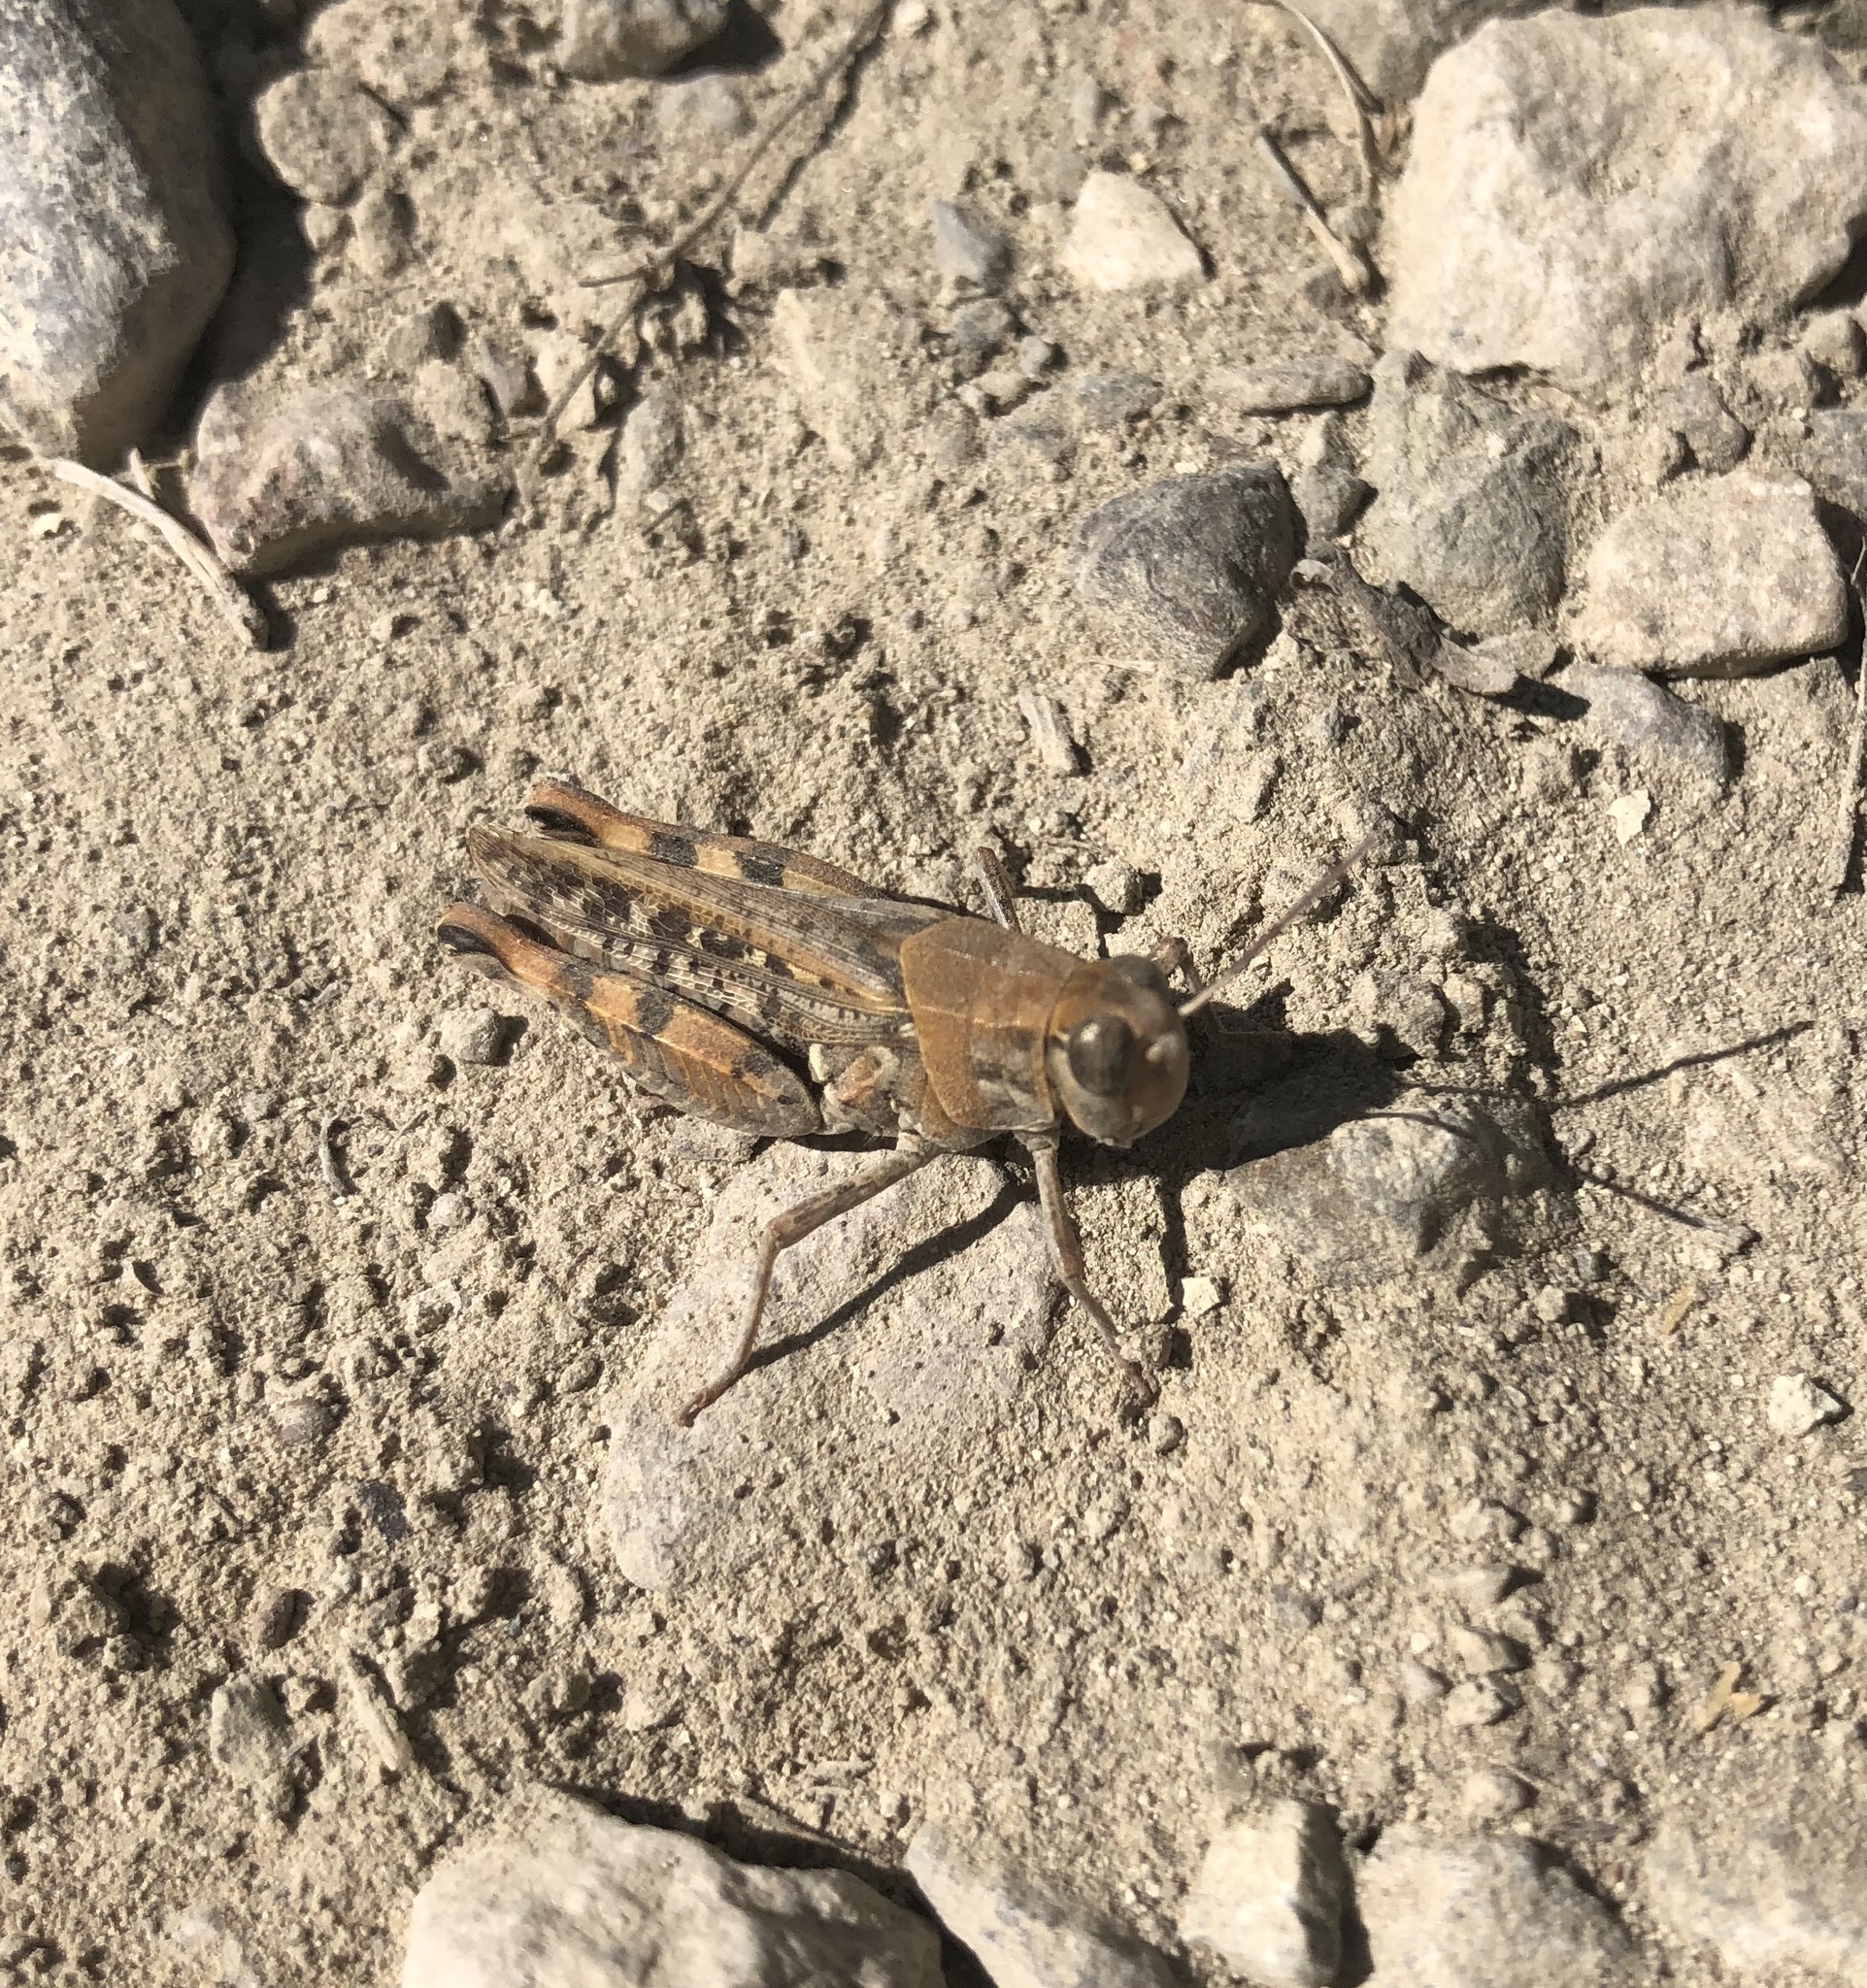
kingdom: Animalia
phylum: Arthropoda
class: Insecta
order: Orthoptera
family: Acrididae
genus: Calliptamus
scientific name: Calliptamus italicus
